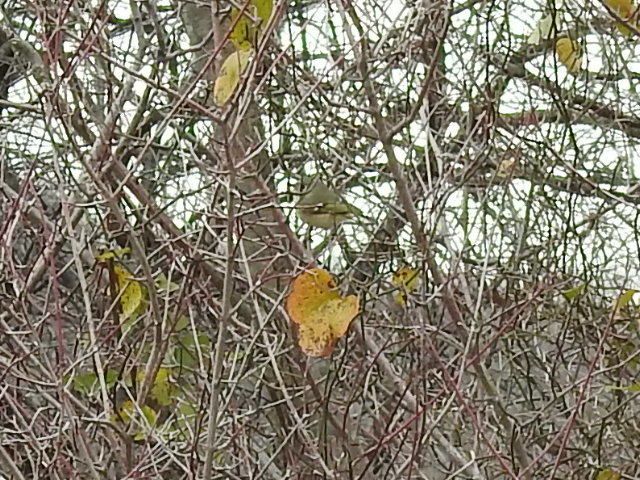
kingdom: Animalia
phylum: Chordata
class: Aves
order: Passeriformes
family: Regulidae
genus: Regulus
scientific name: Regulus calendula
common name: Ruby-crowned kinglet
